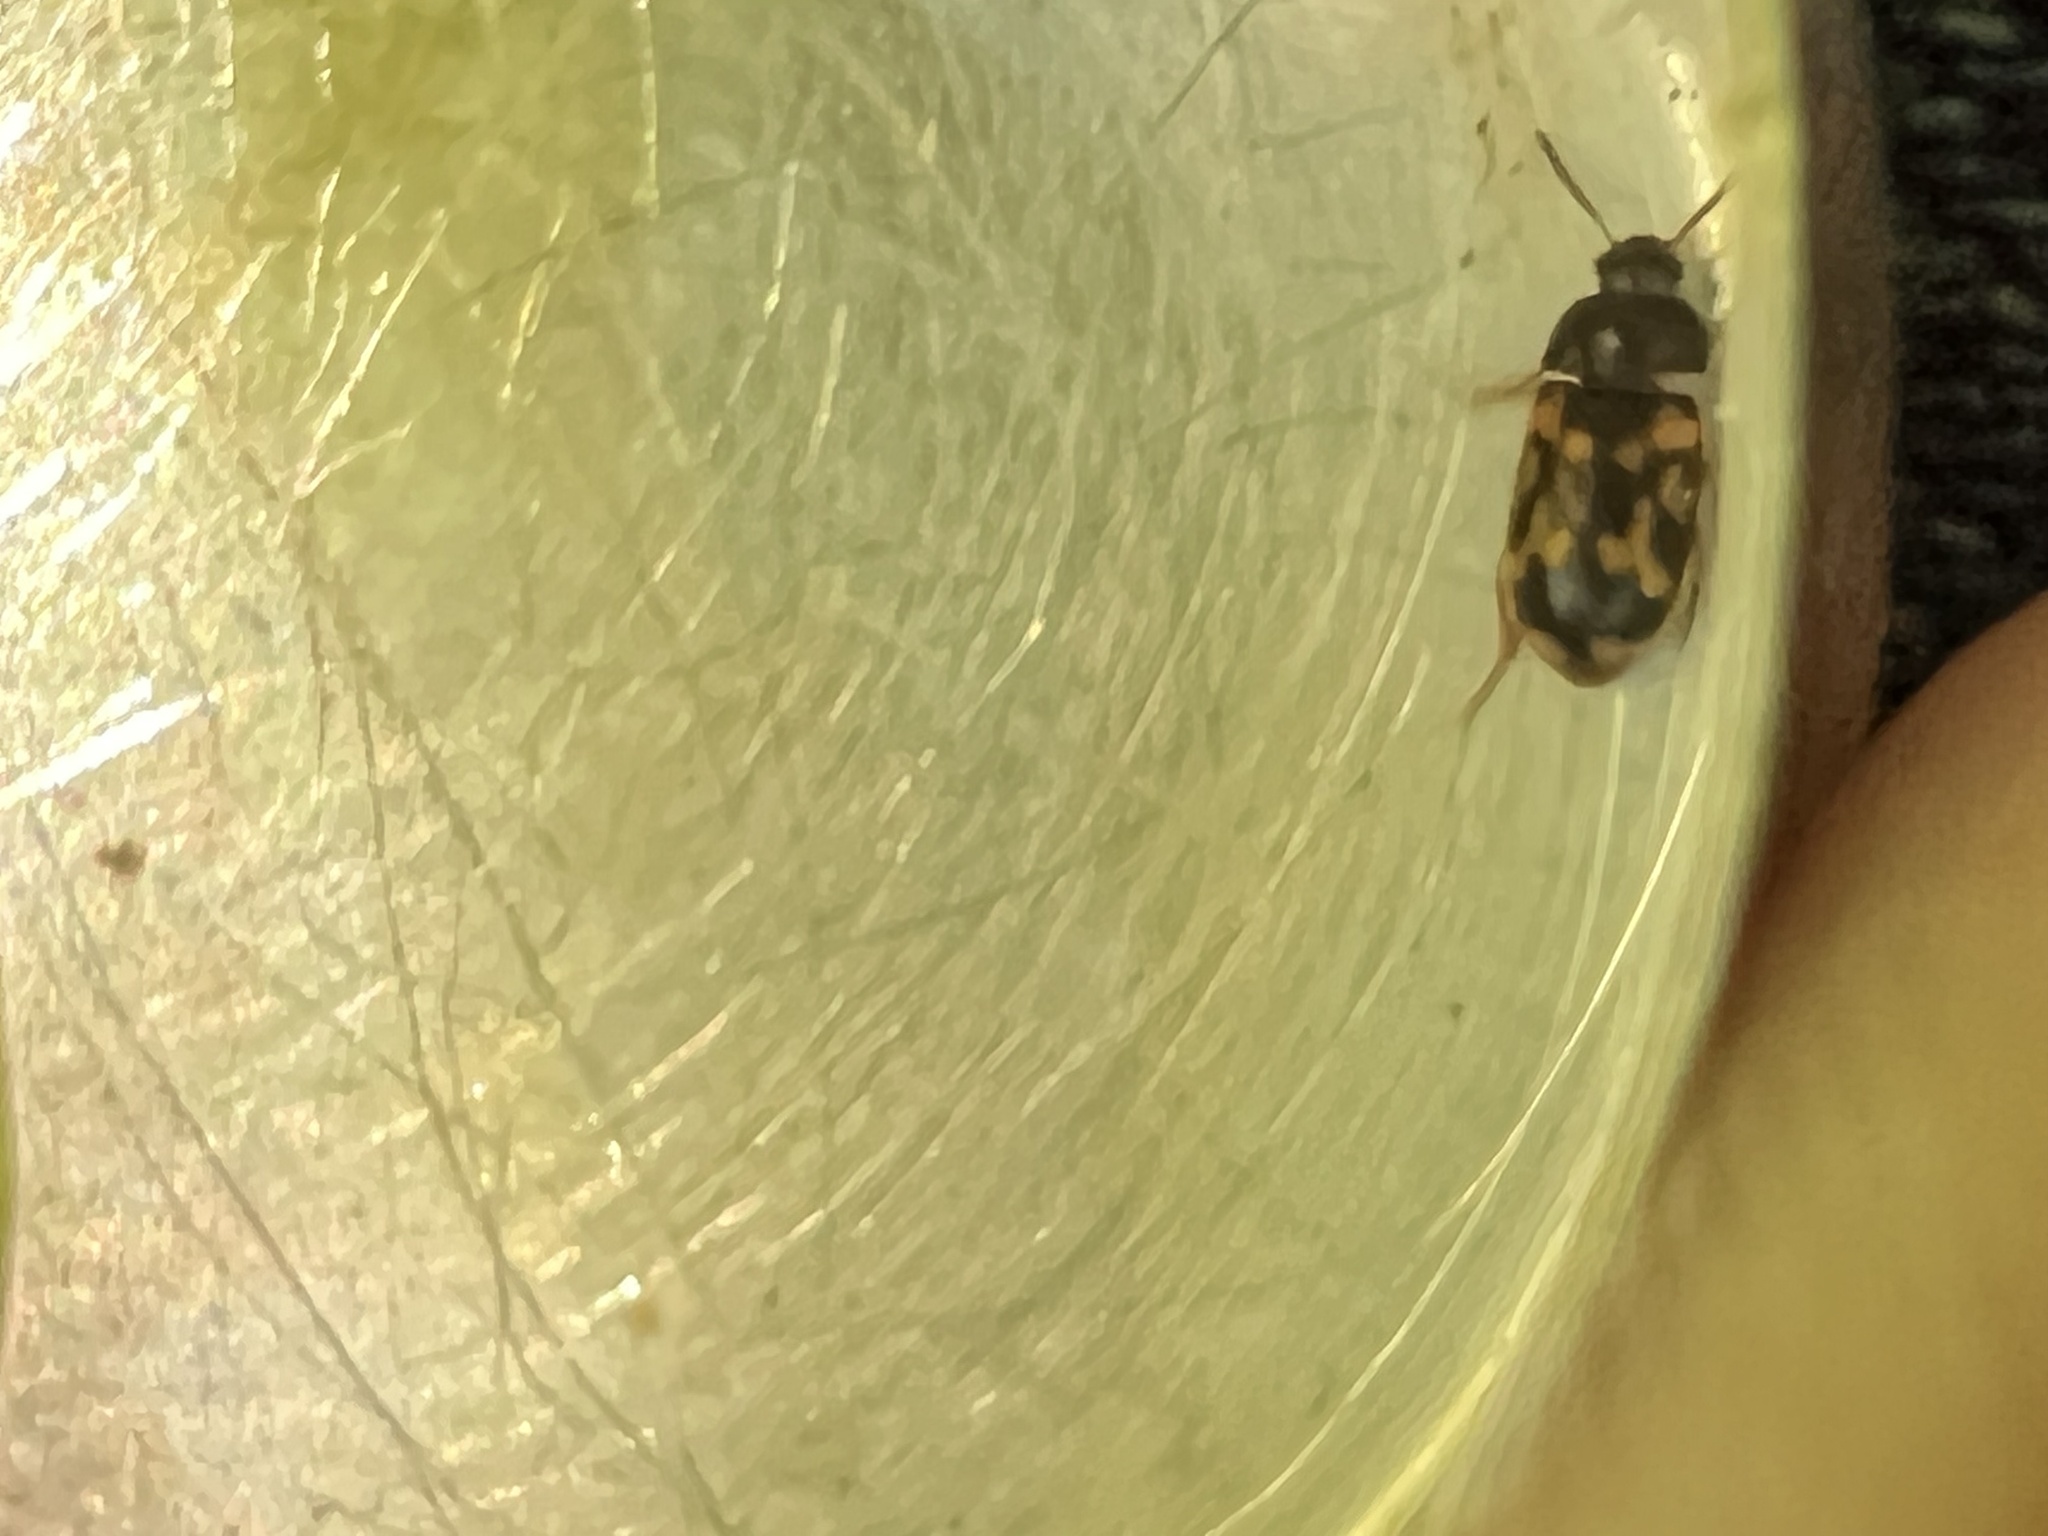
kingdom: Animalia
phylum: Arthropoda
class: Insecta
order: Coleoptera
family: Mycetophagidae
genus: Mycetophagus
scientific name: Mycetophagus serrulatus
